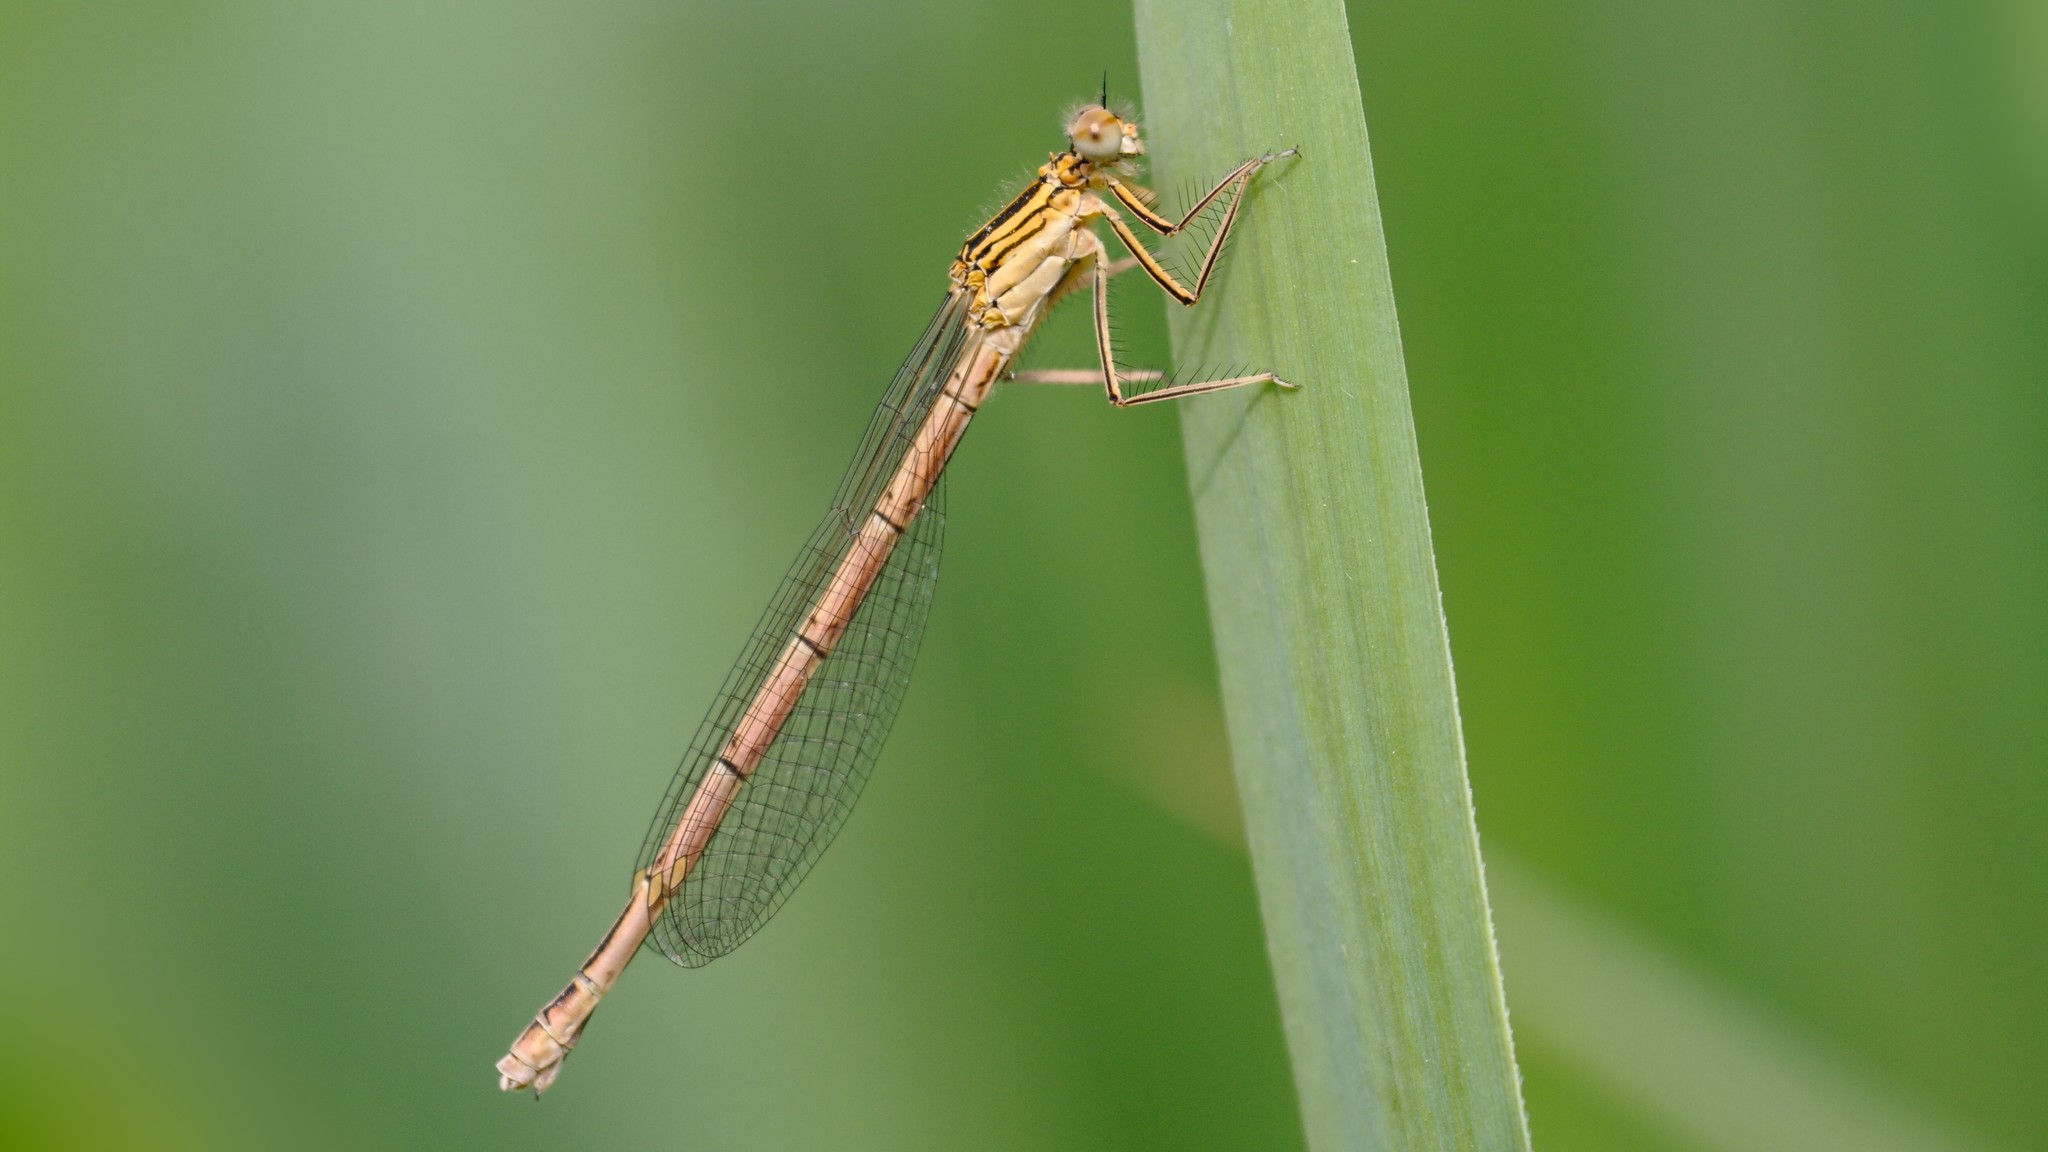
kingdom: Animalia
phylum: Arthropoda
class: Insecta
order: Odonata
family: Platycnemididae
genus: Platycnemis
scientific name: Platycnemis pennipes
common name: White-legged damselfly
